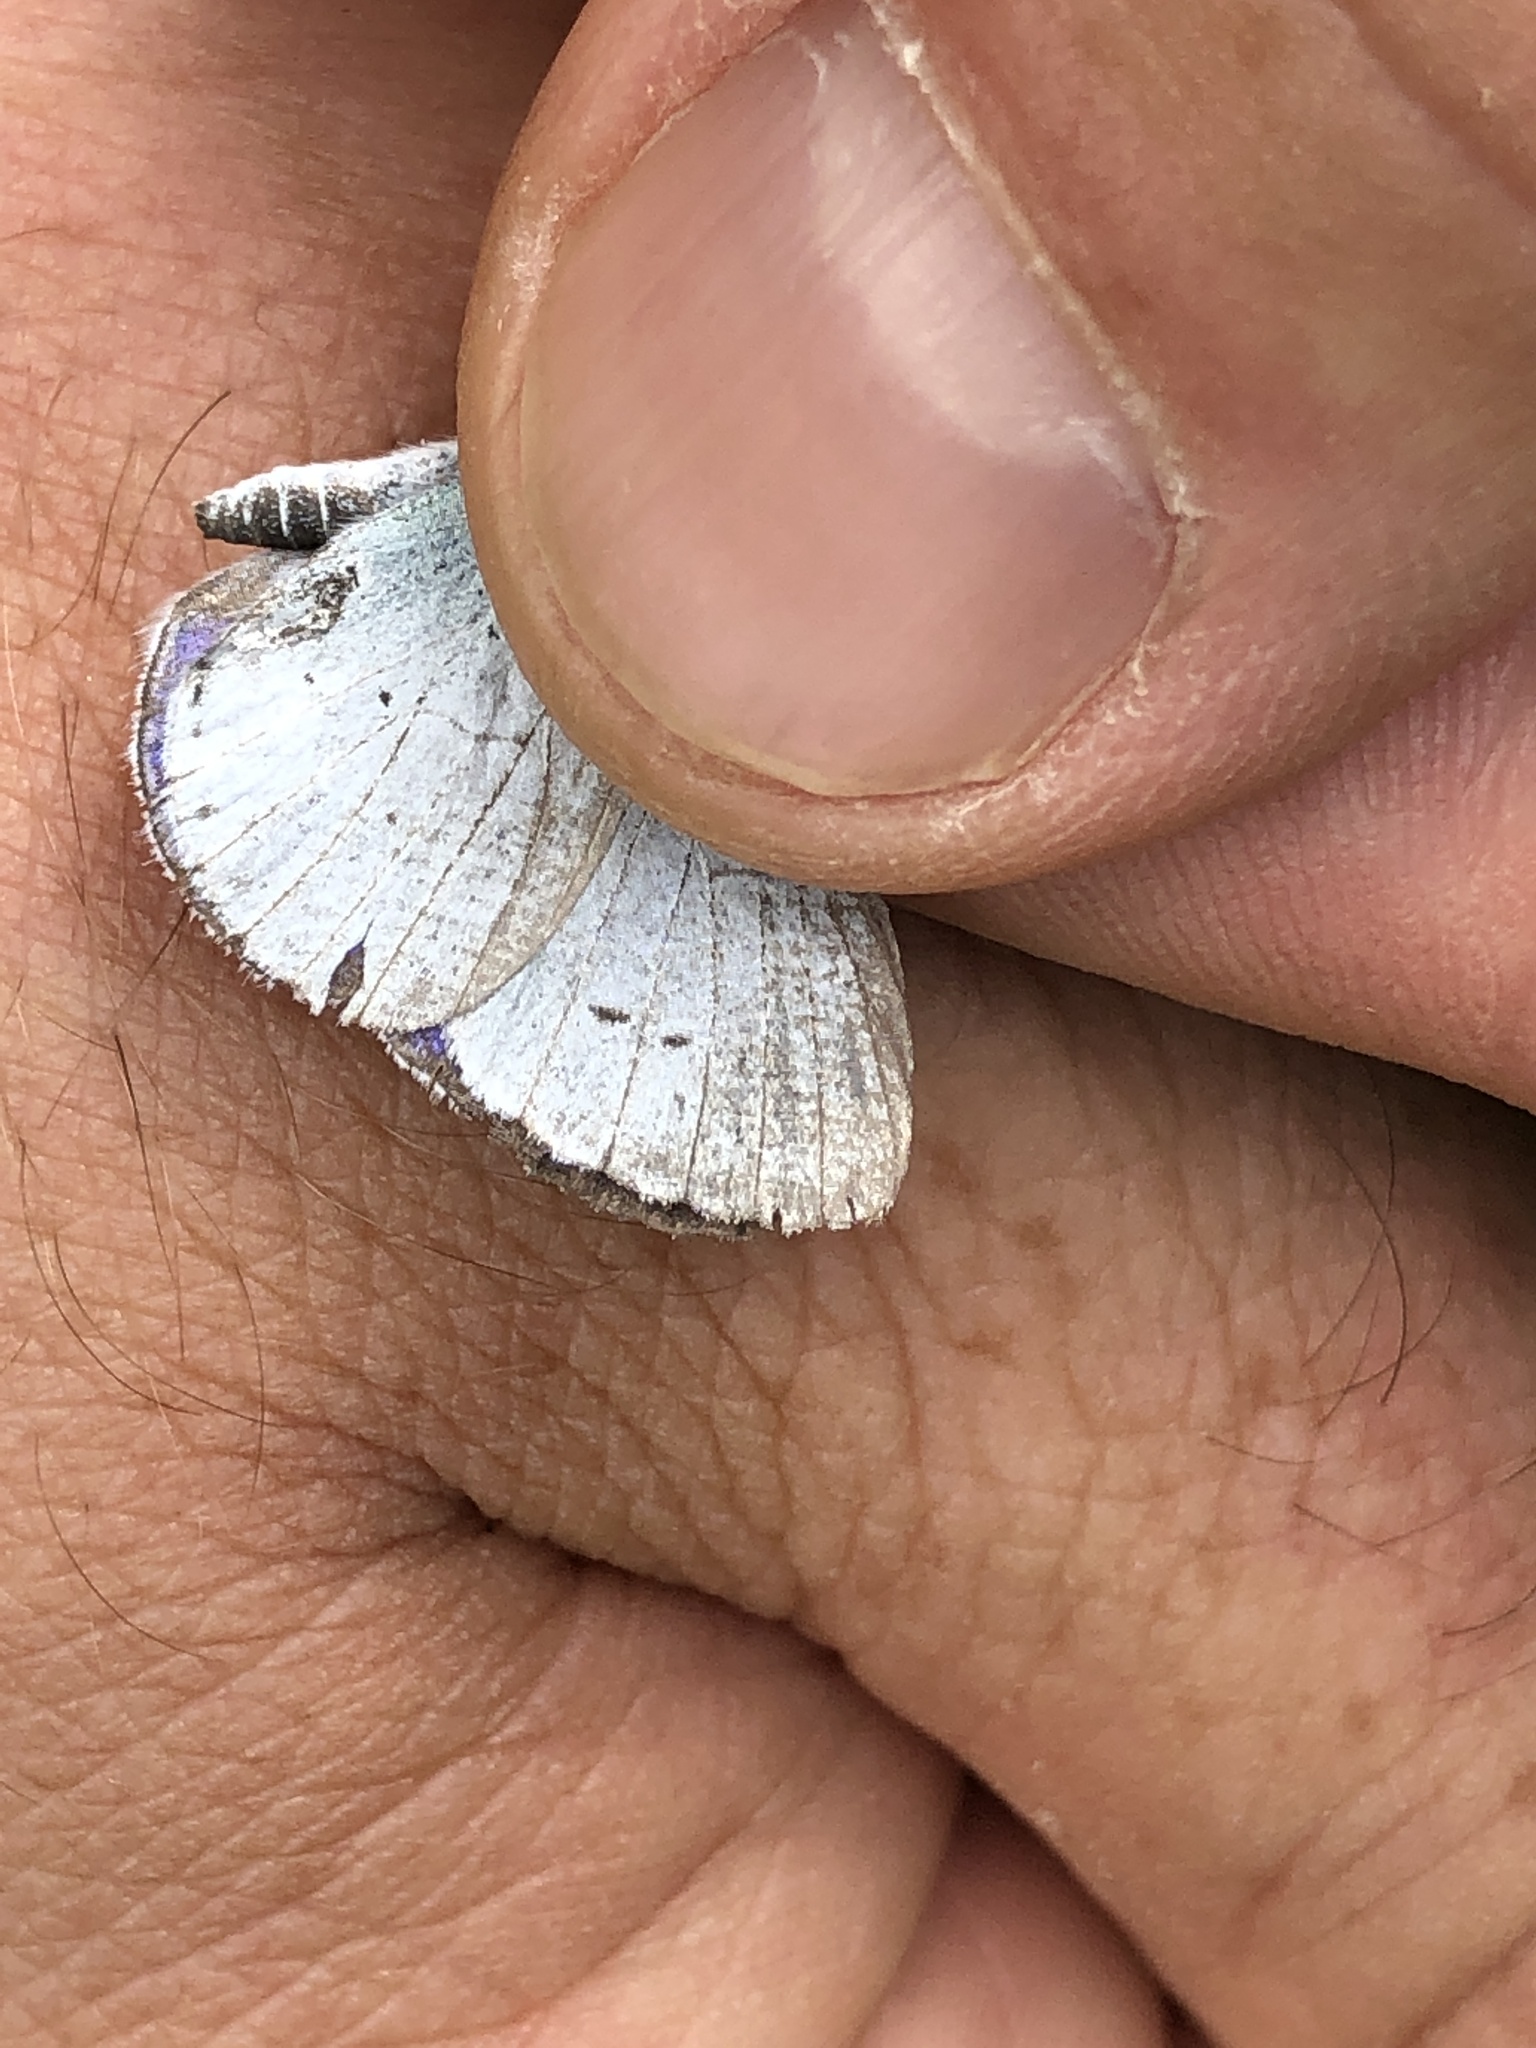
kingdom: Animalia
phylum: Arthropoda
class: Insecta
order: Lepidoptera
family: Lycaenidae
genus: Celastrina
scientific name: Celastrina argiolus
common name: Holly blue
